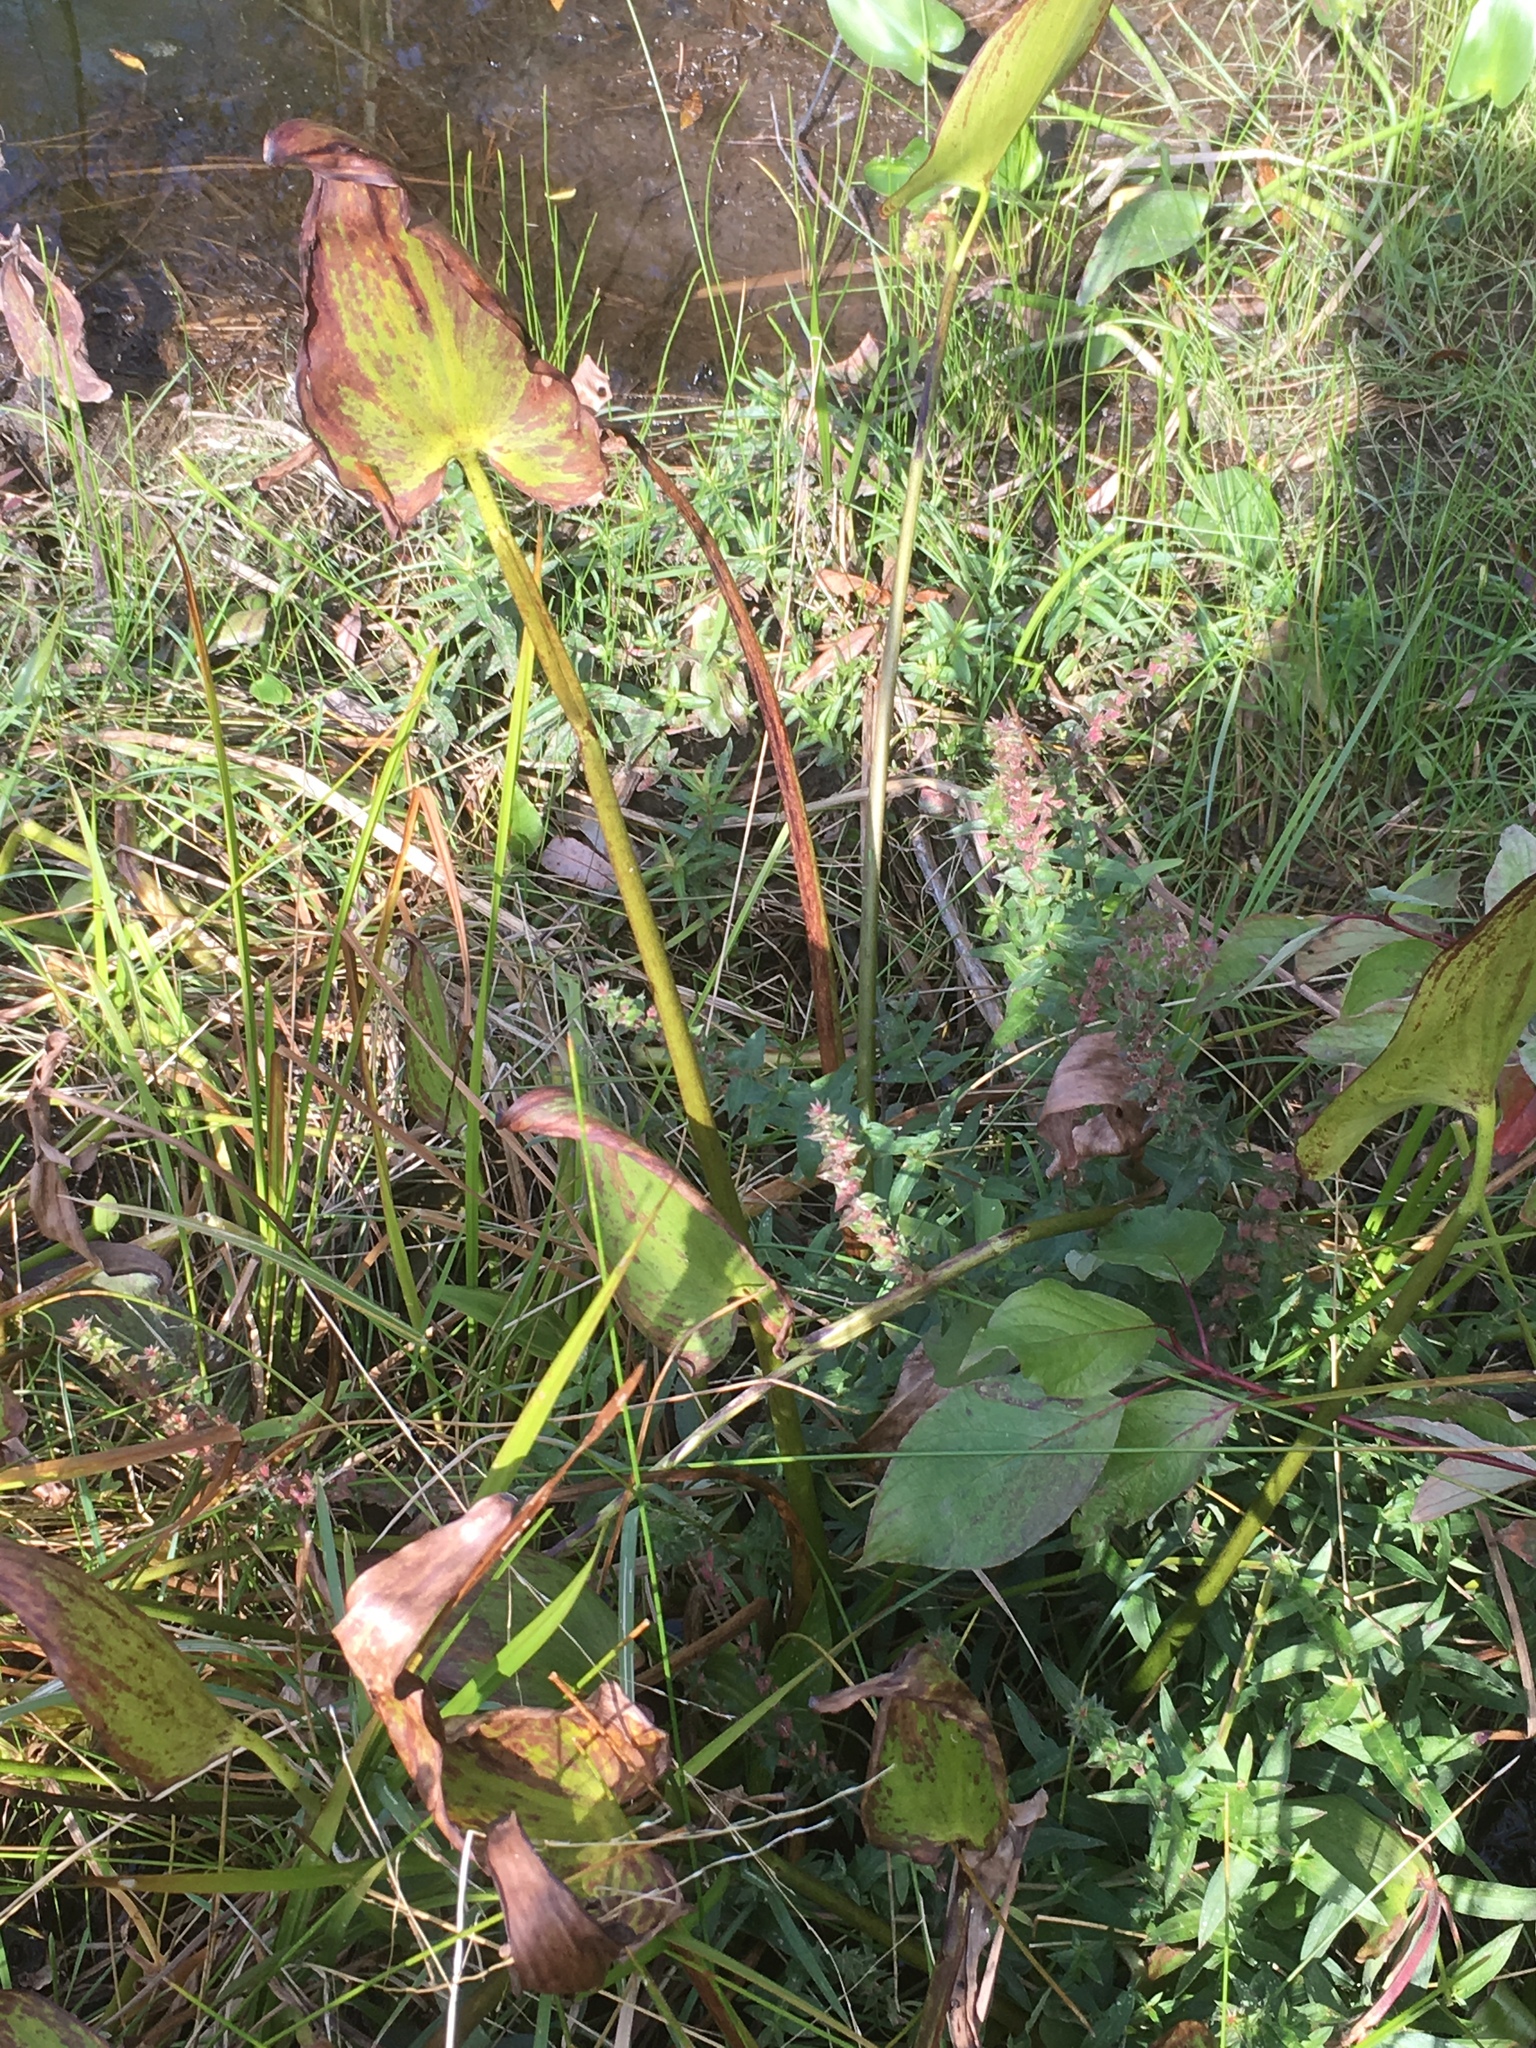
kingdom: Plantae
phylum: Tracheophyta
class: Liliopsida
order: Commelinales
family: Pontederiaceae
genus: Pontederia
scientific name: Pontederia cordata
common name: Pickerelweed
